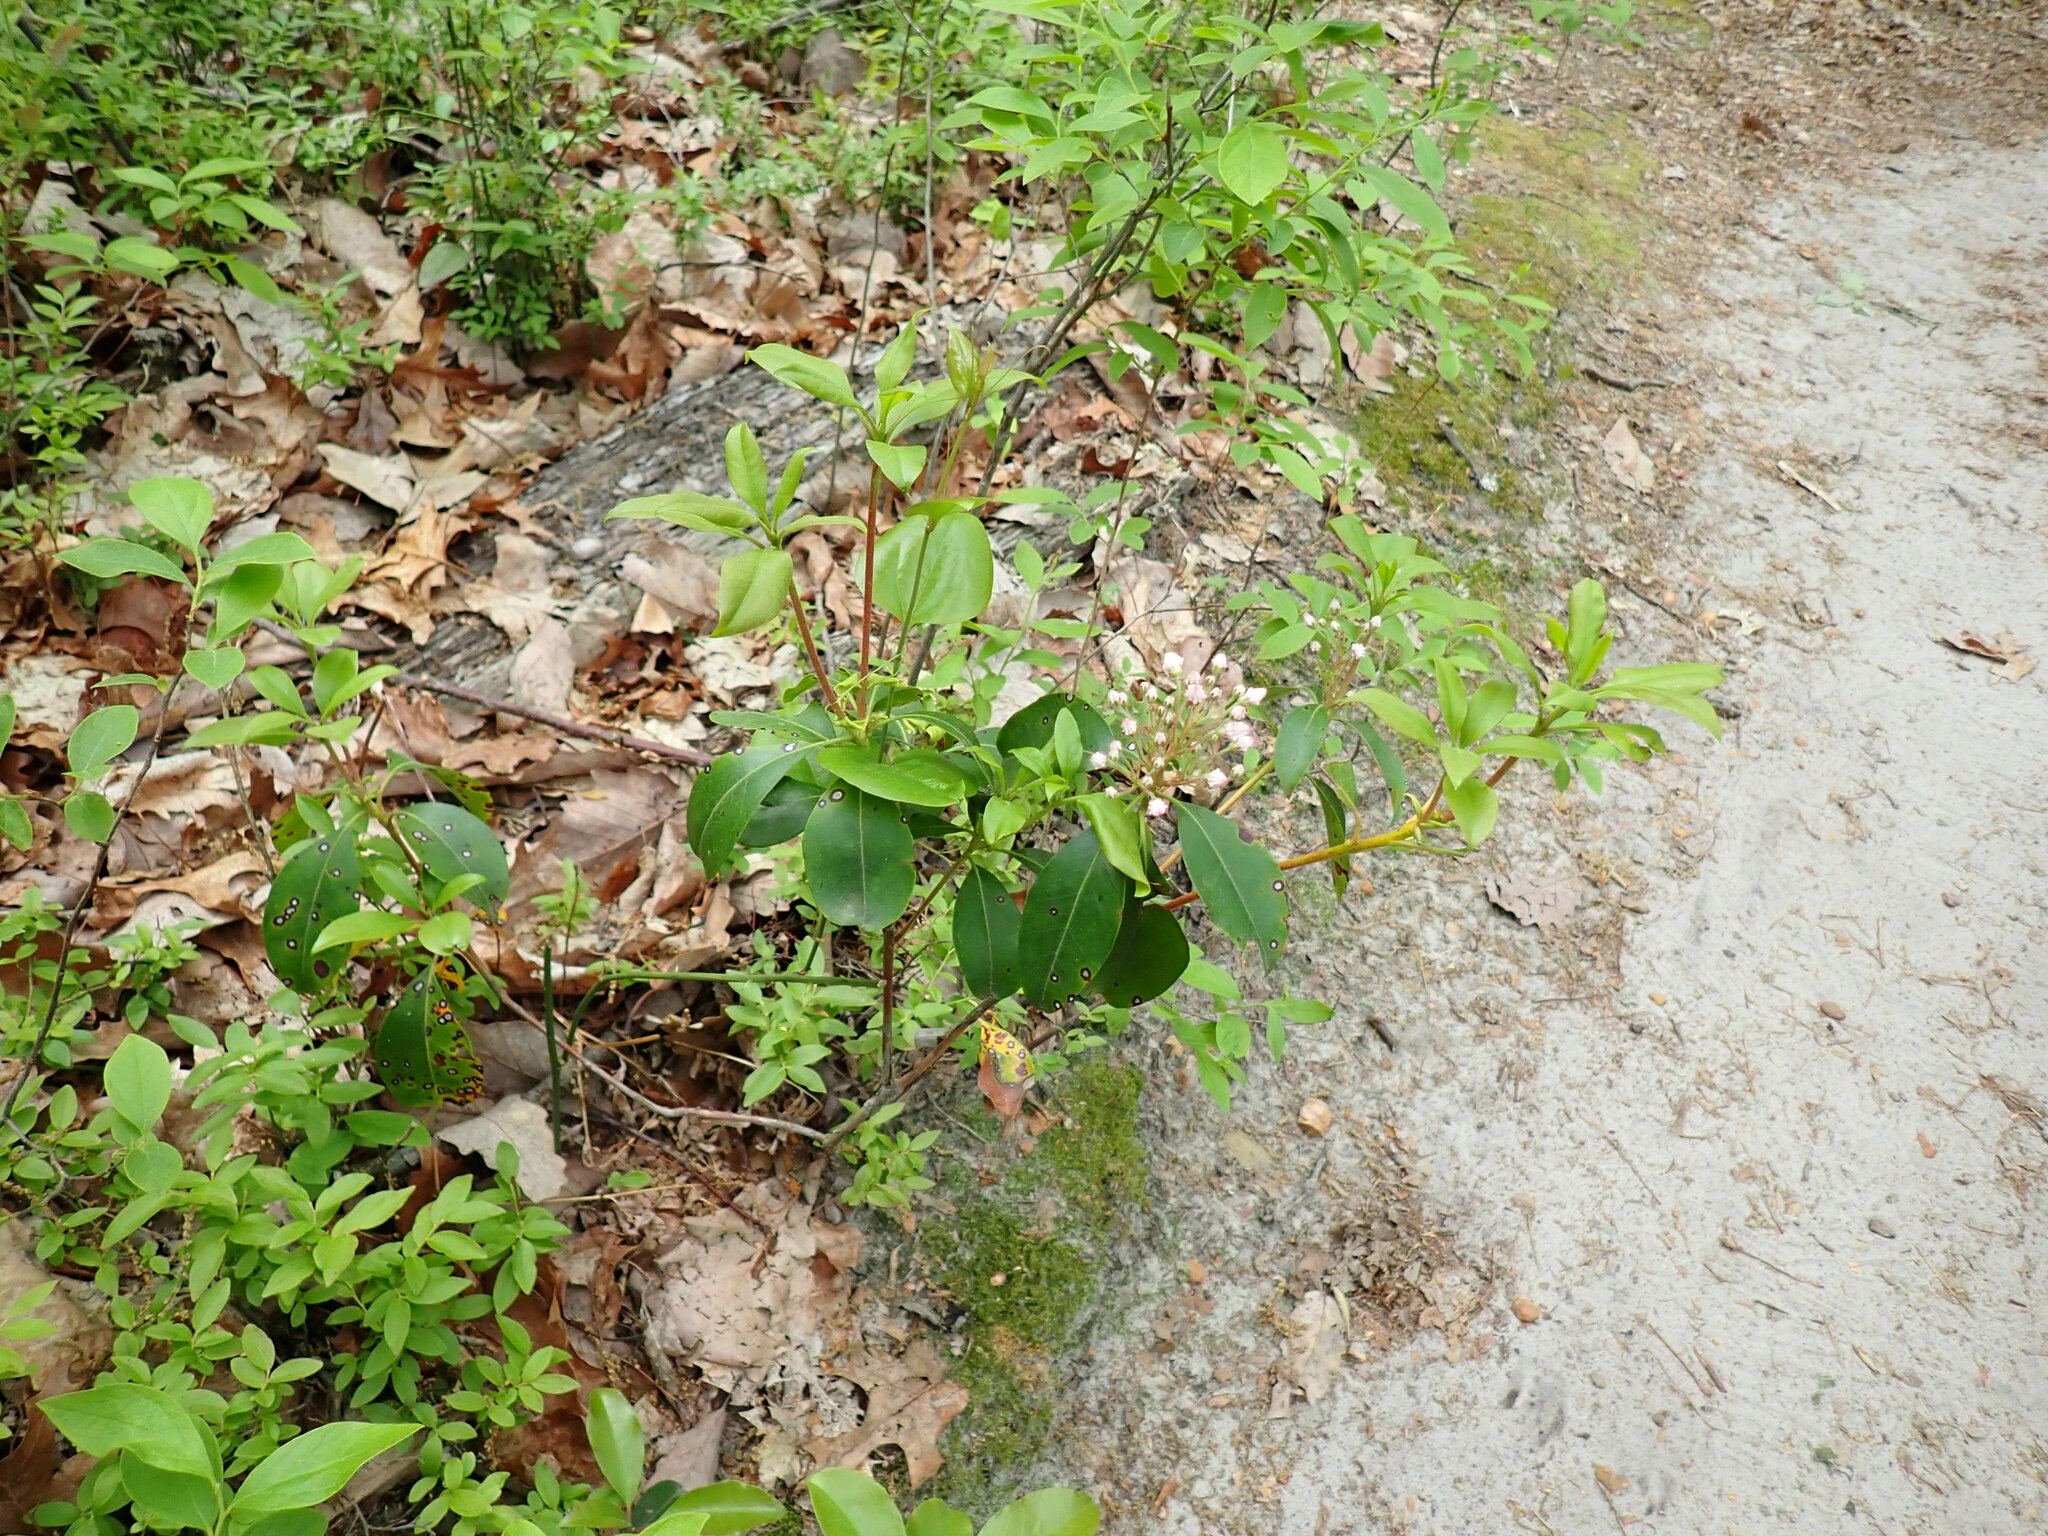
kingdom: Plantae
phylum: Tracheophyta
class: Magnoliopsida
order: Ericales
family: Ericaceae
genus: Kalmia
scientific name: Kalmia latifolia
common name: Mountain-laurel
